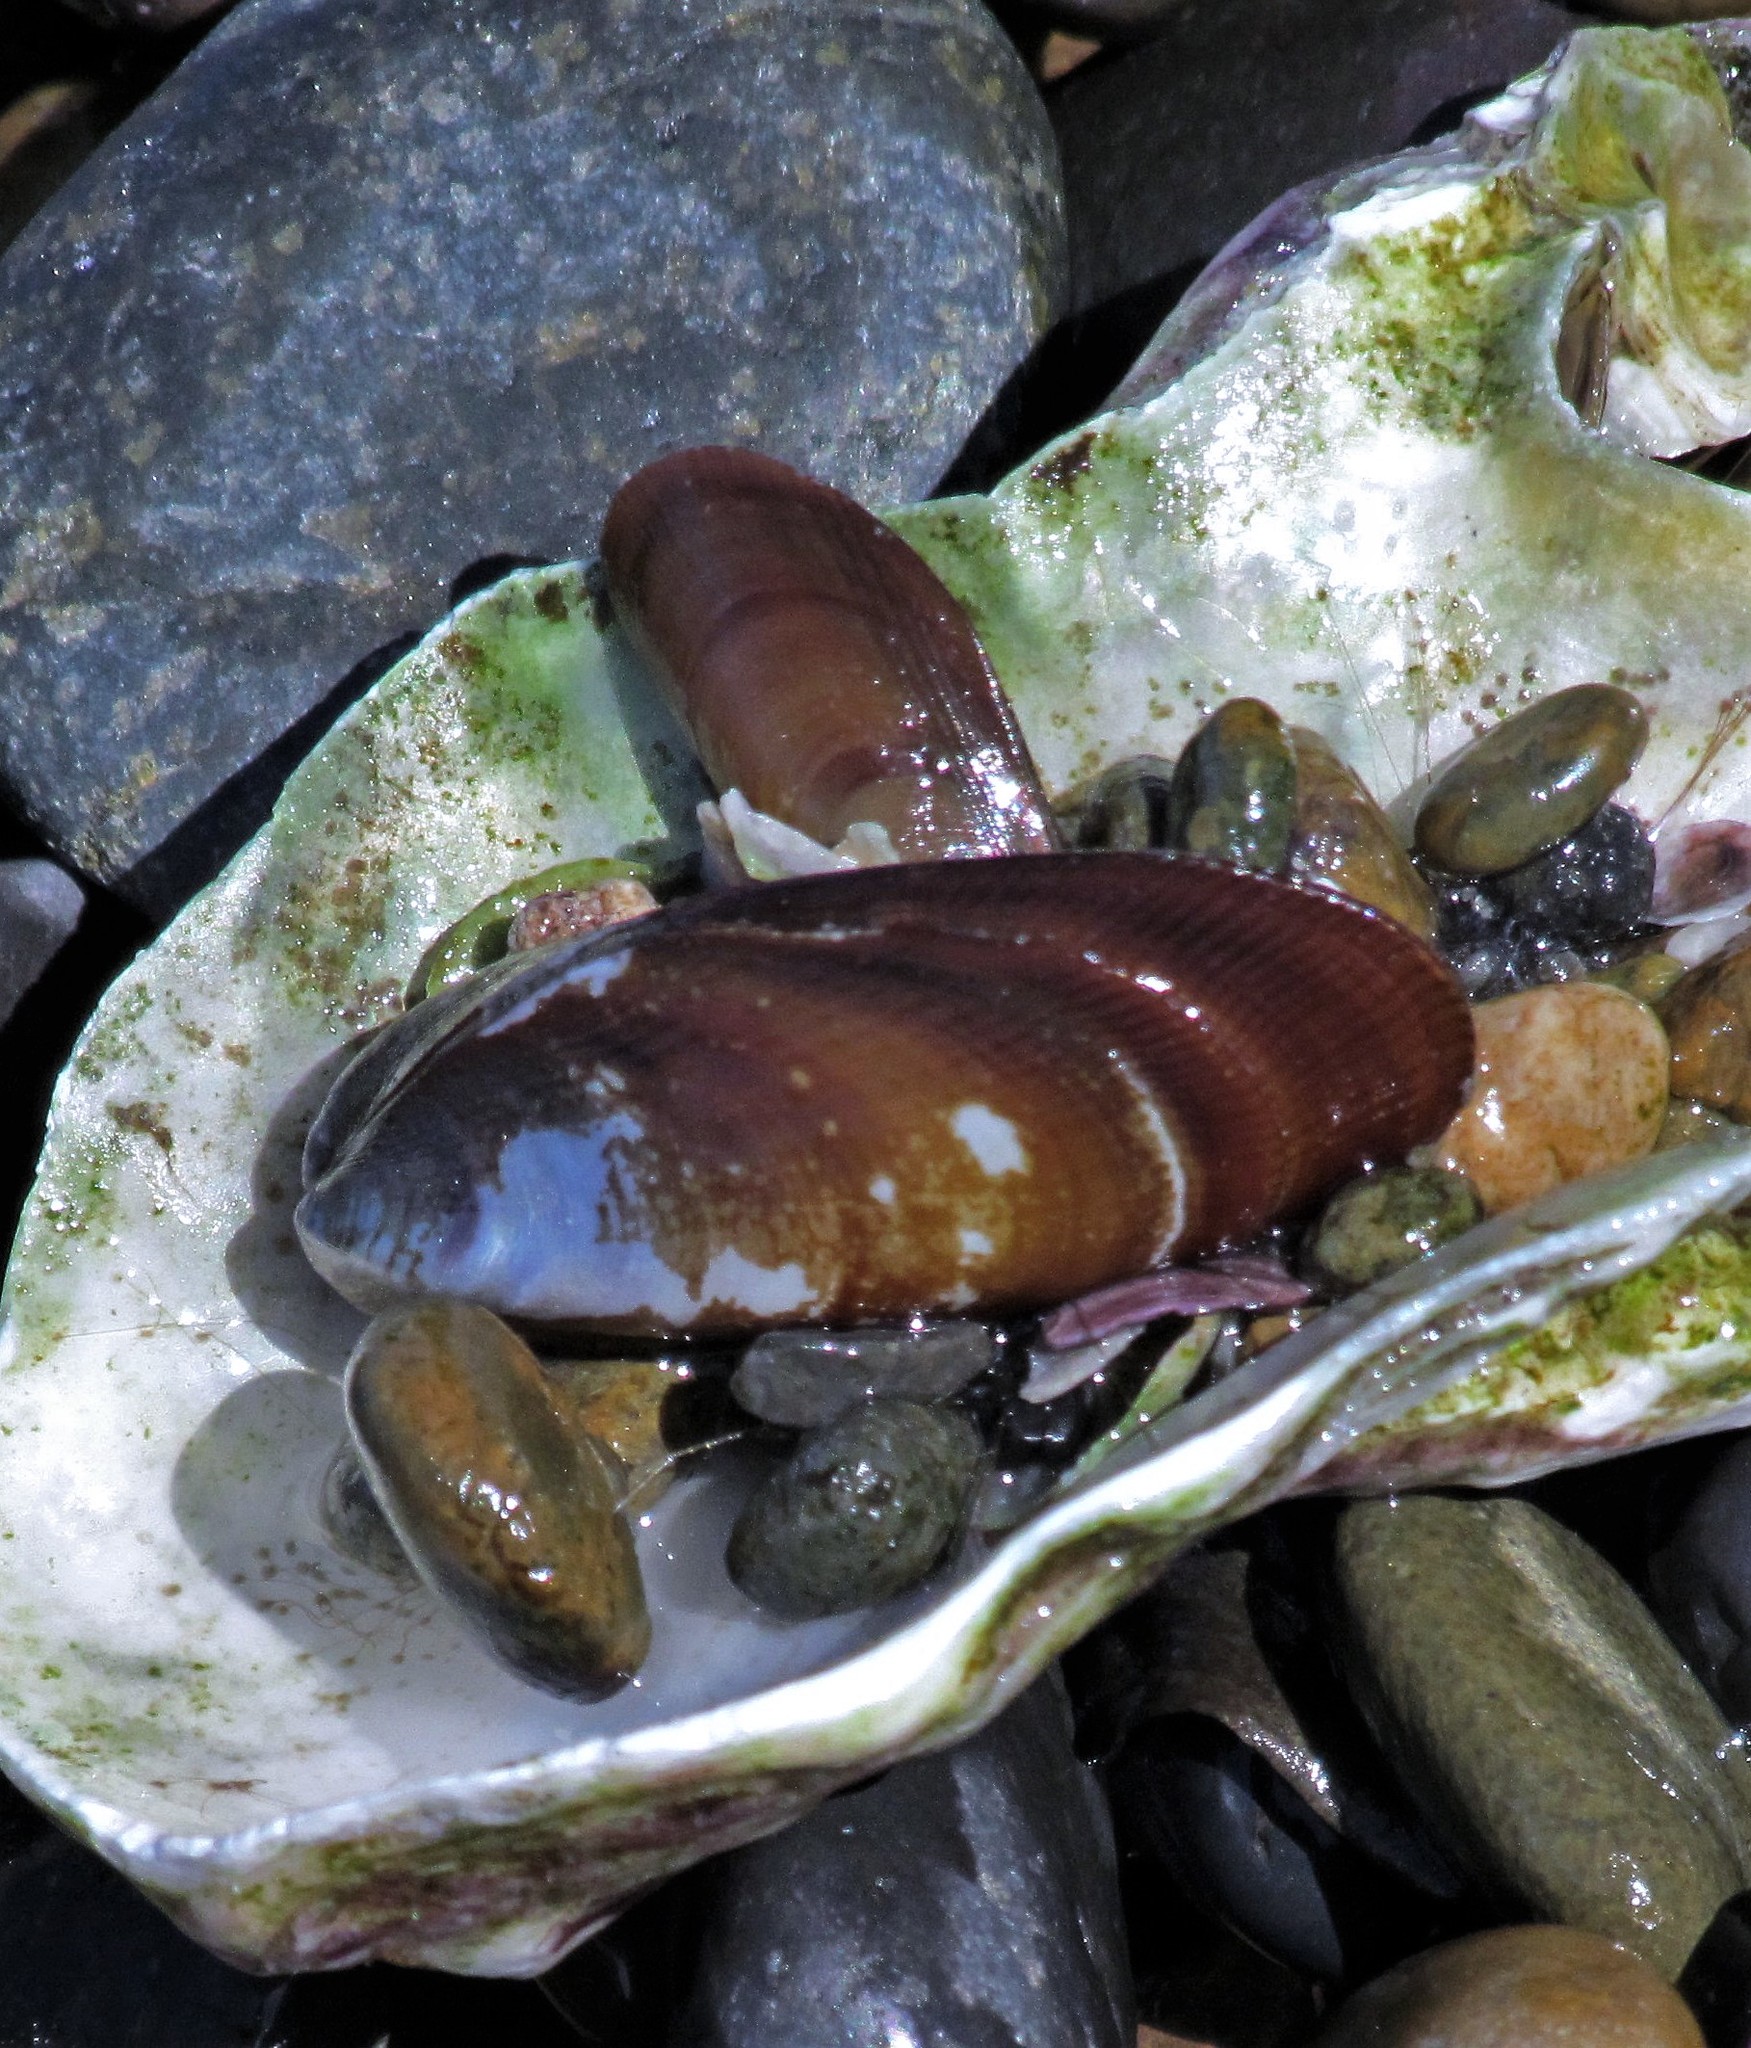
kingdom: Animalia
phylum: Mollusca
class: Bivalvia
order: Mytilida
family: Mytilidae
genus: Brachidontes
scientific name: Brachidontes rodriguezii
